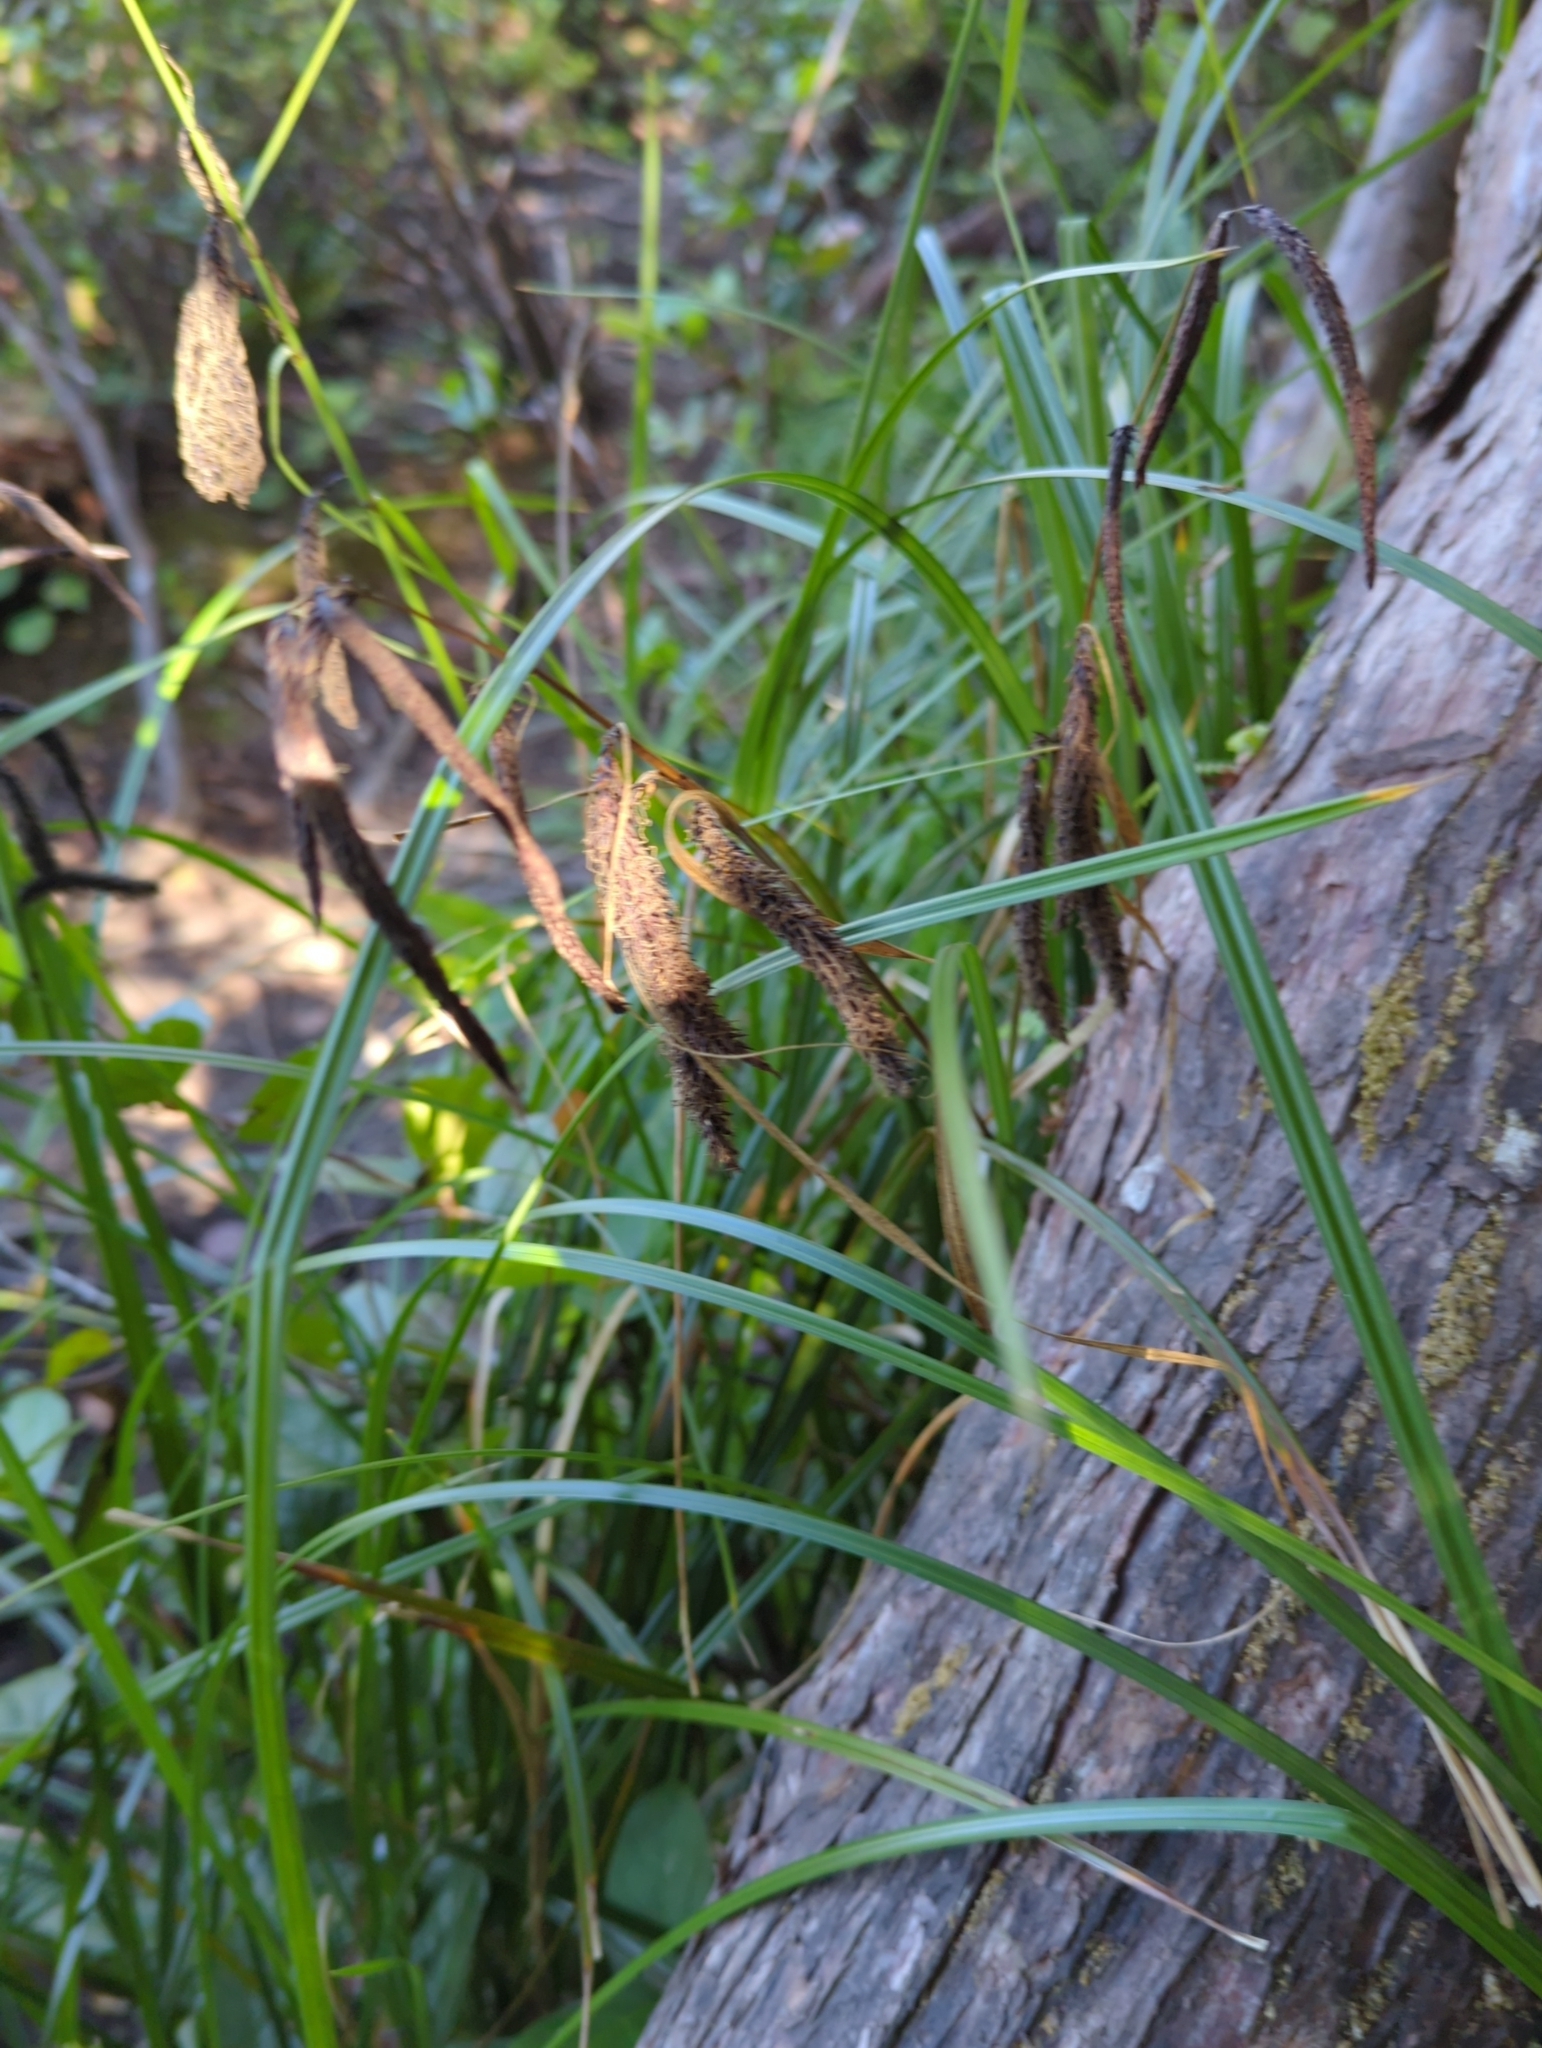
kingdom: Plantae
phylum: Tracheophyta
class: Liliopsida
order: Poales
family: Cyperaceae
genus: Carex
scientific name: Carex obnupta
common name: Slough sedge
